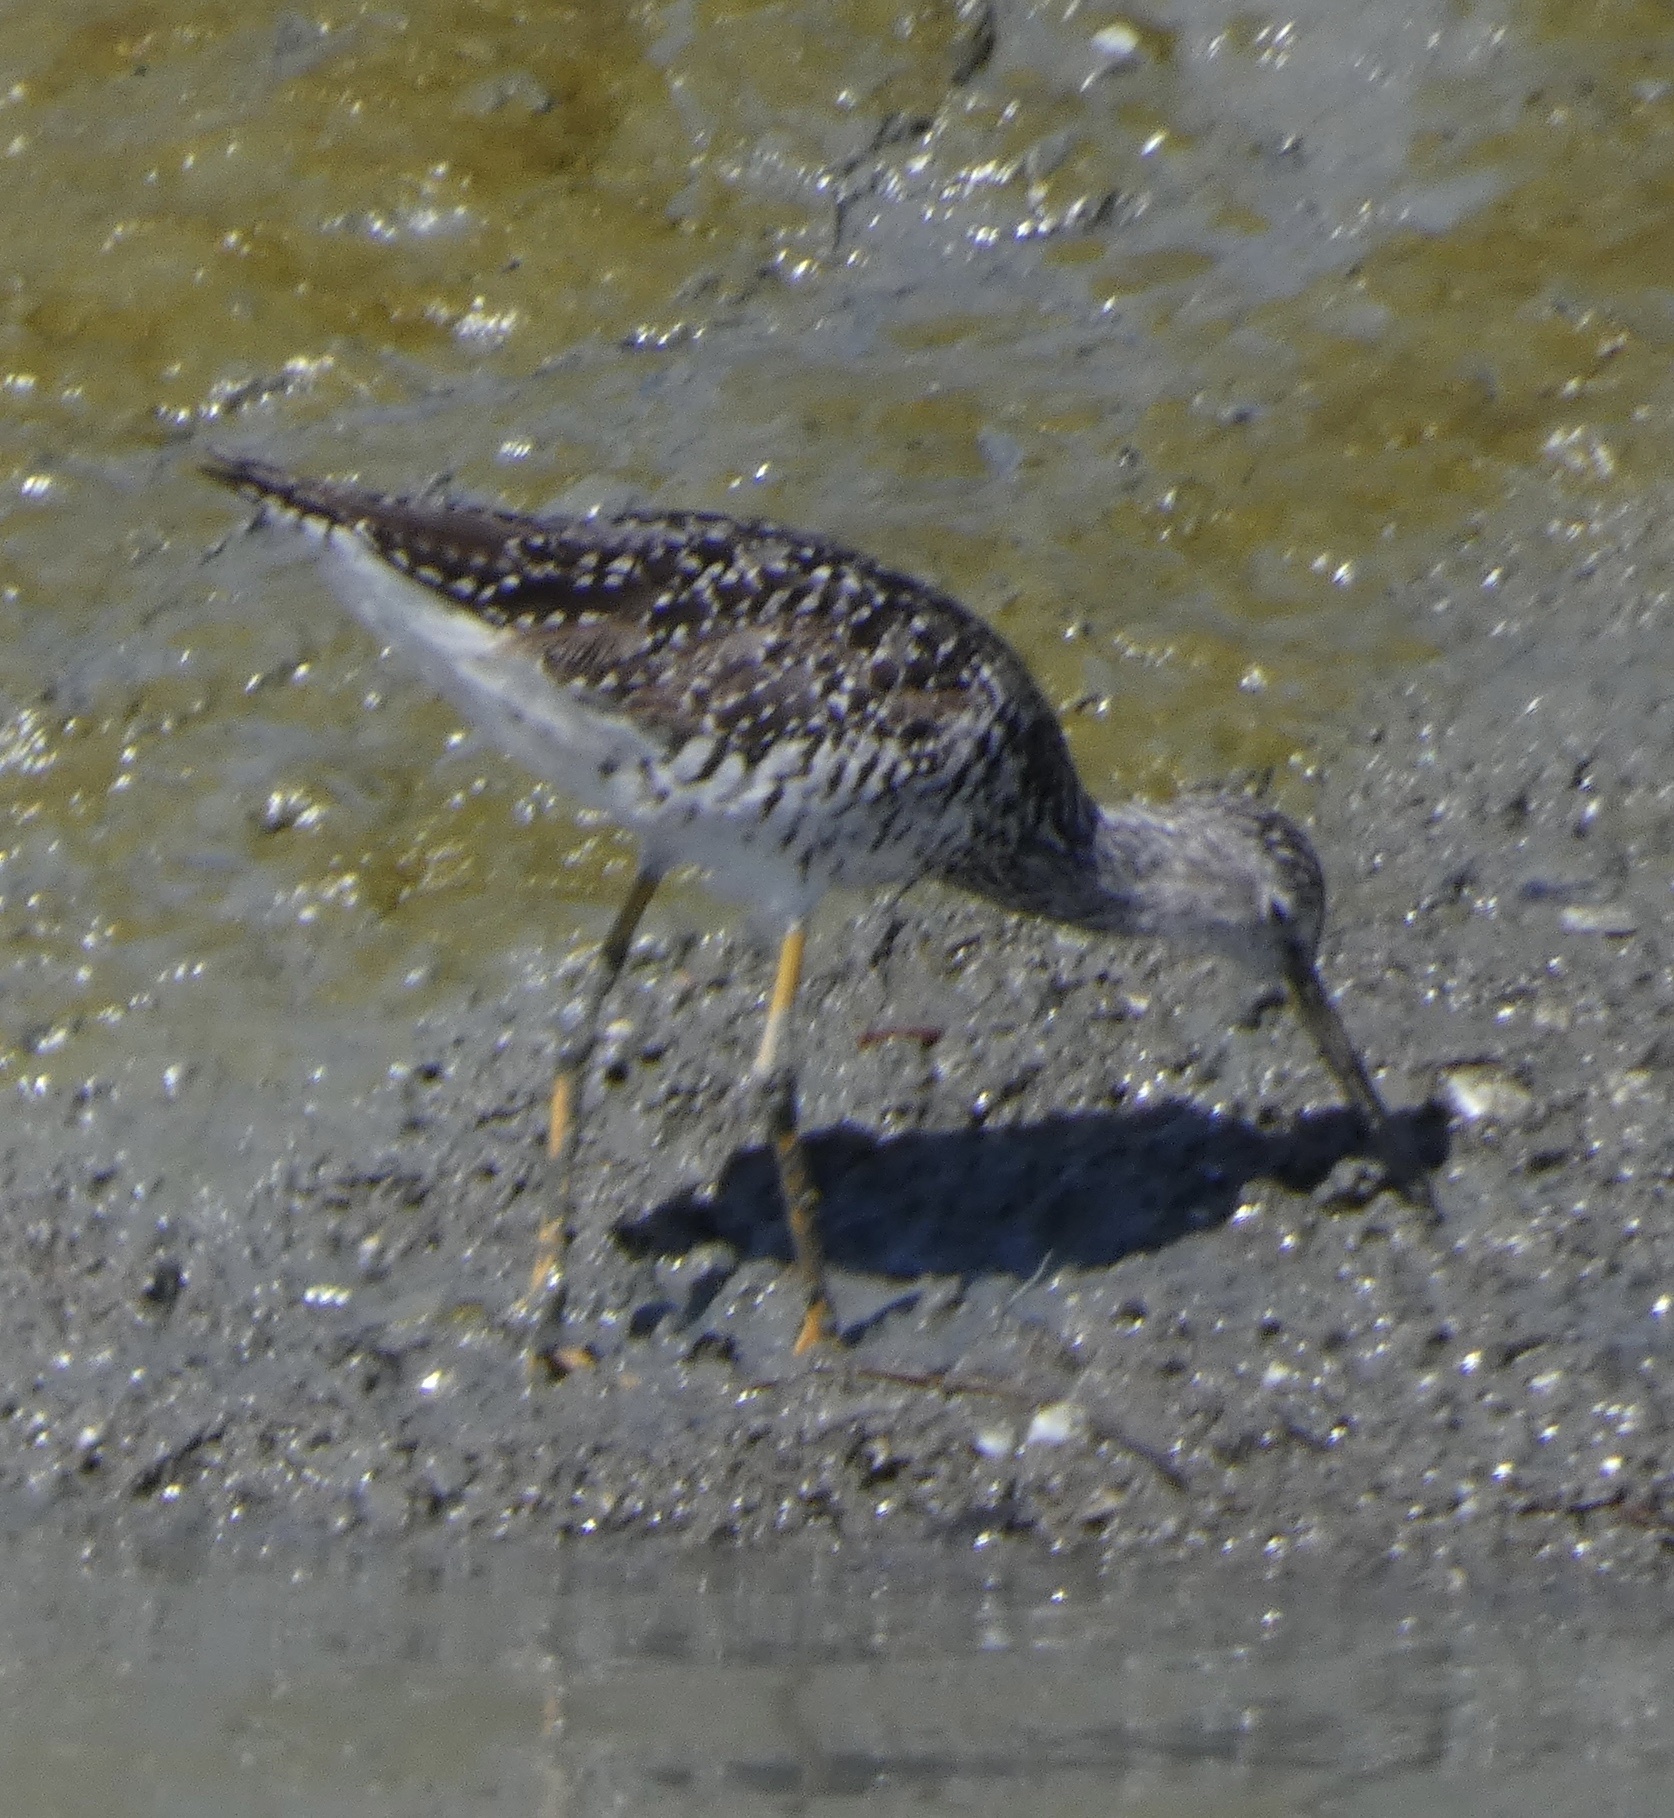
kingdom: Animalia
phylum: Chordata
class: Aves
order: Charadriiformes
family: Scolopacidae
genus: Tringa
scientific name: Tringa melanoleuca
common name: Greater yellowlegs
